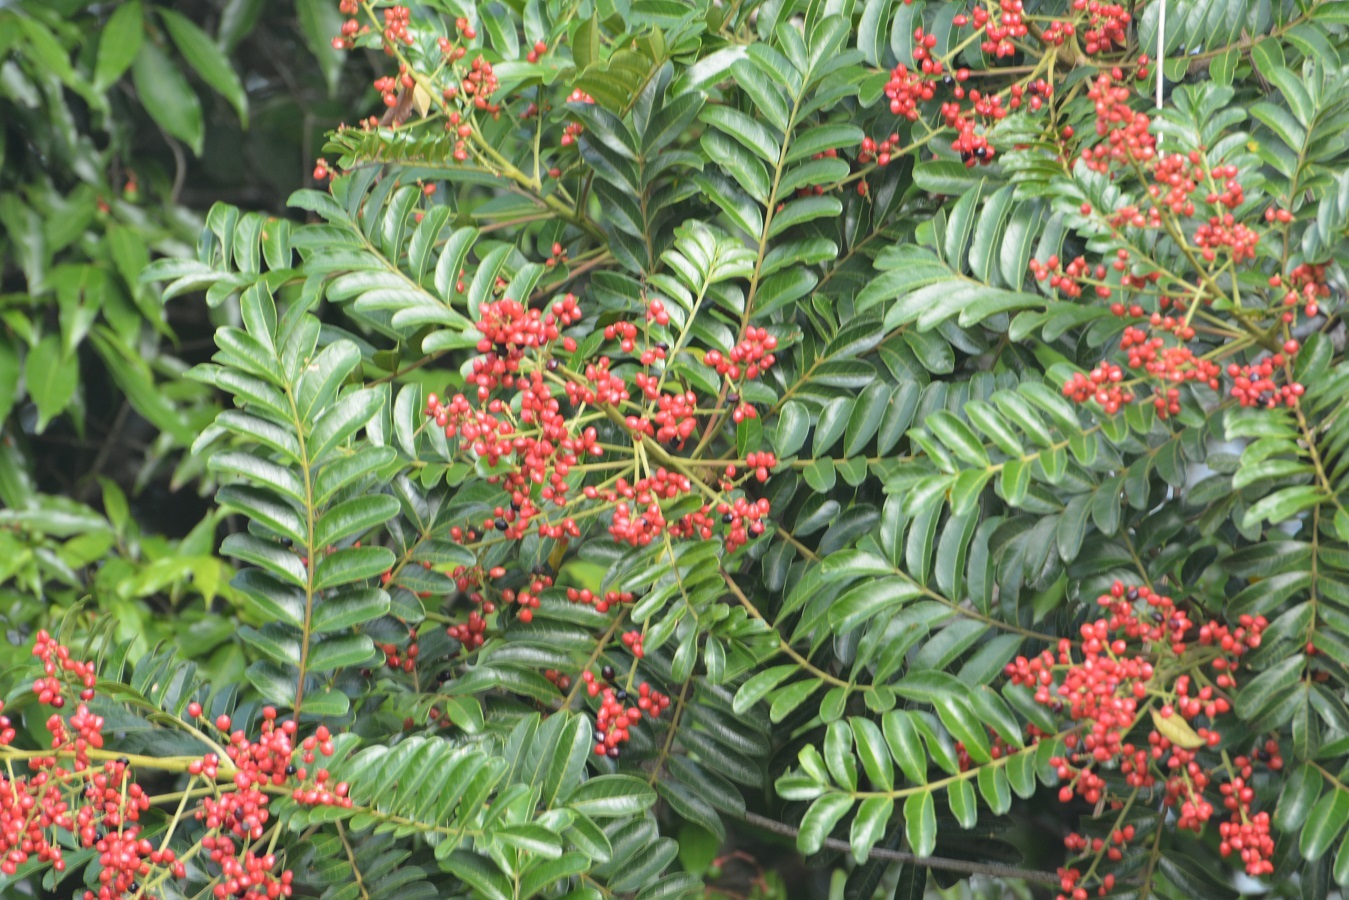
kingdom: Plantae
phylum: Tracheophyta
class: Magnoliopsida
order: Sapindales
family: Anacardiaceae
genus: Mosquitoxylum
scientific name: Mosquitoxylum jamaicense
